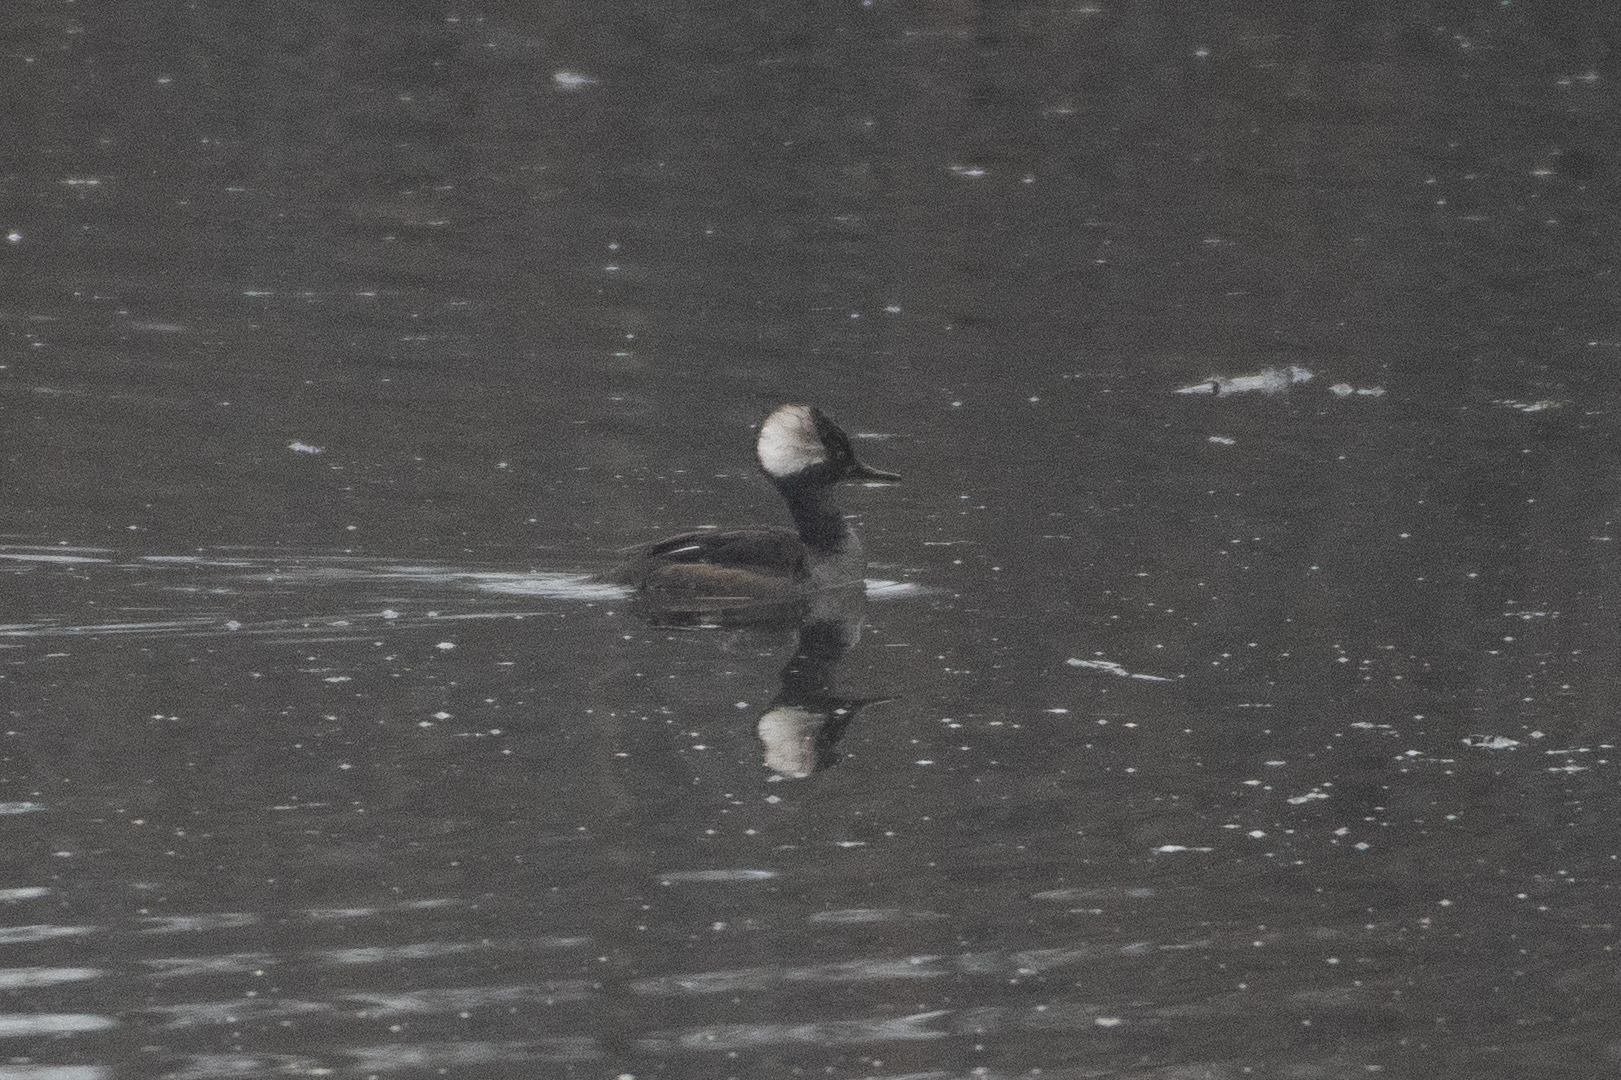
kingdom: Animalia
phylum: Chordata
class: Aves
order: Anseriformes
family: Anatidae
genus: Lophodytes
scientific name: Lophodytes cucullatus
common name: Hooded merganser
